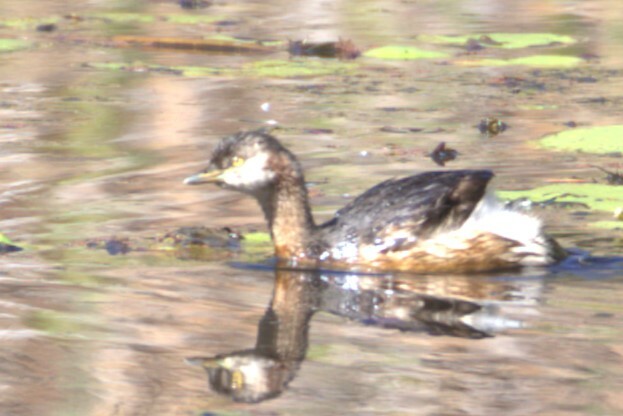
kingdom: Animalia
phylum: Chordata
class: Aves
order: Podicipediformes
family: Podicipedidae
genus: Tachybaptus
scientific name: Tachybaptus novaehollandiae
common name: Australasian grebe
